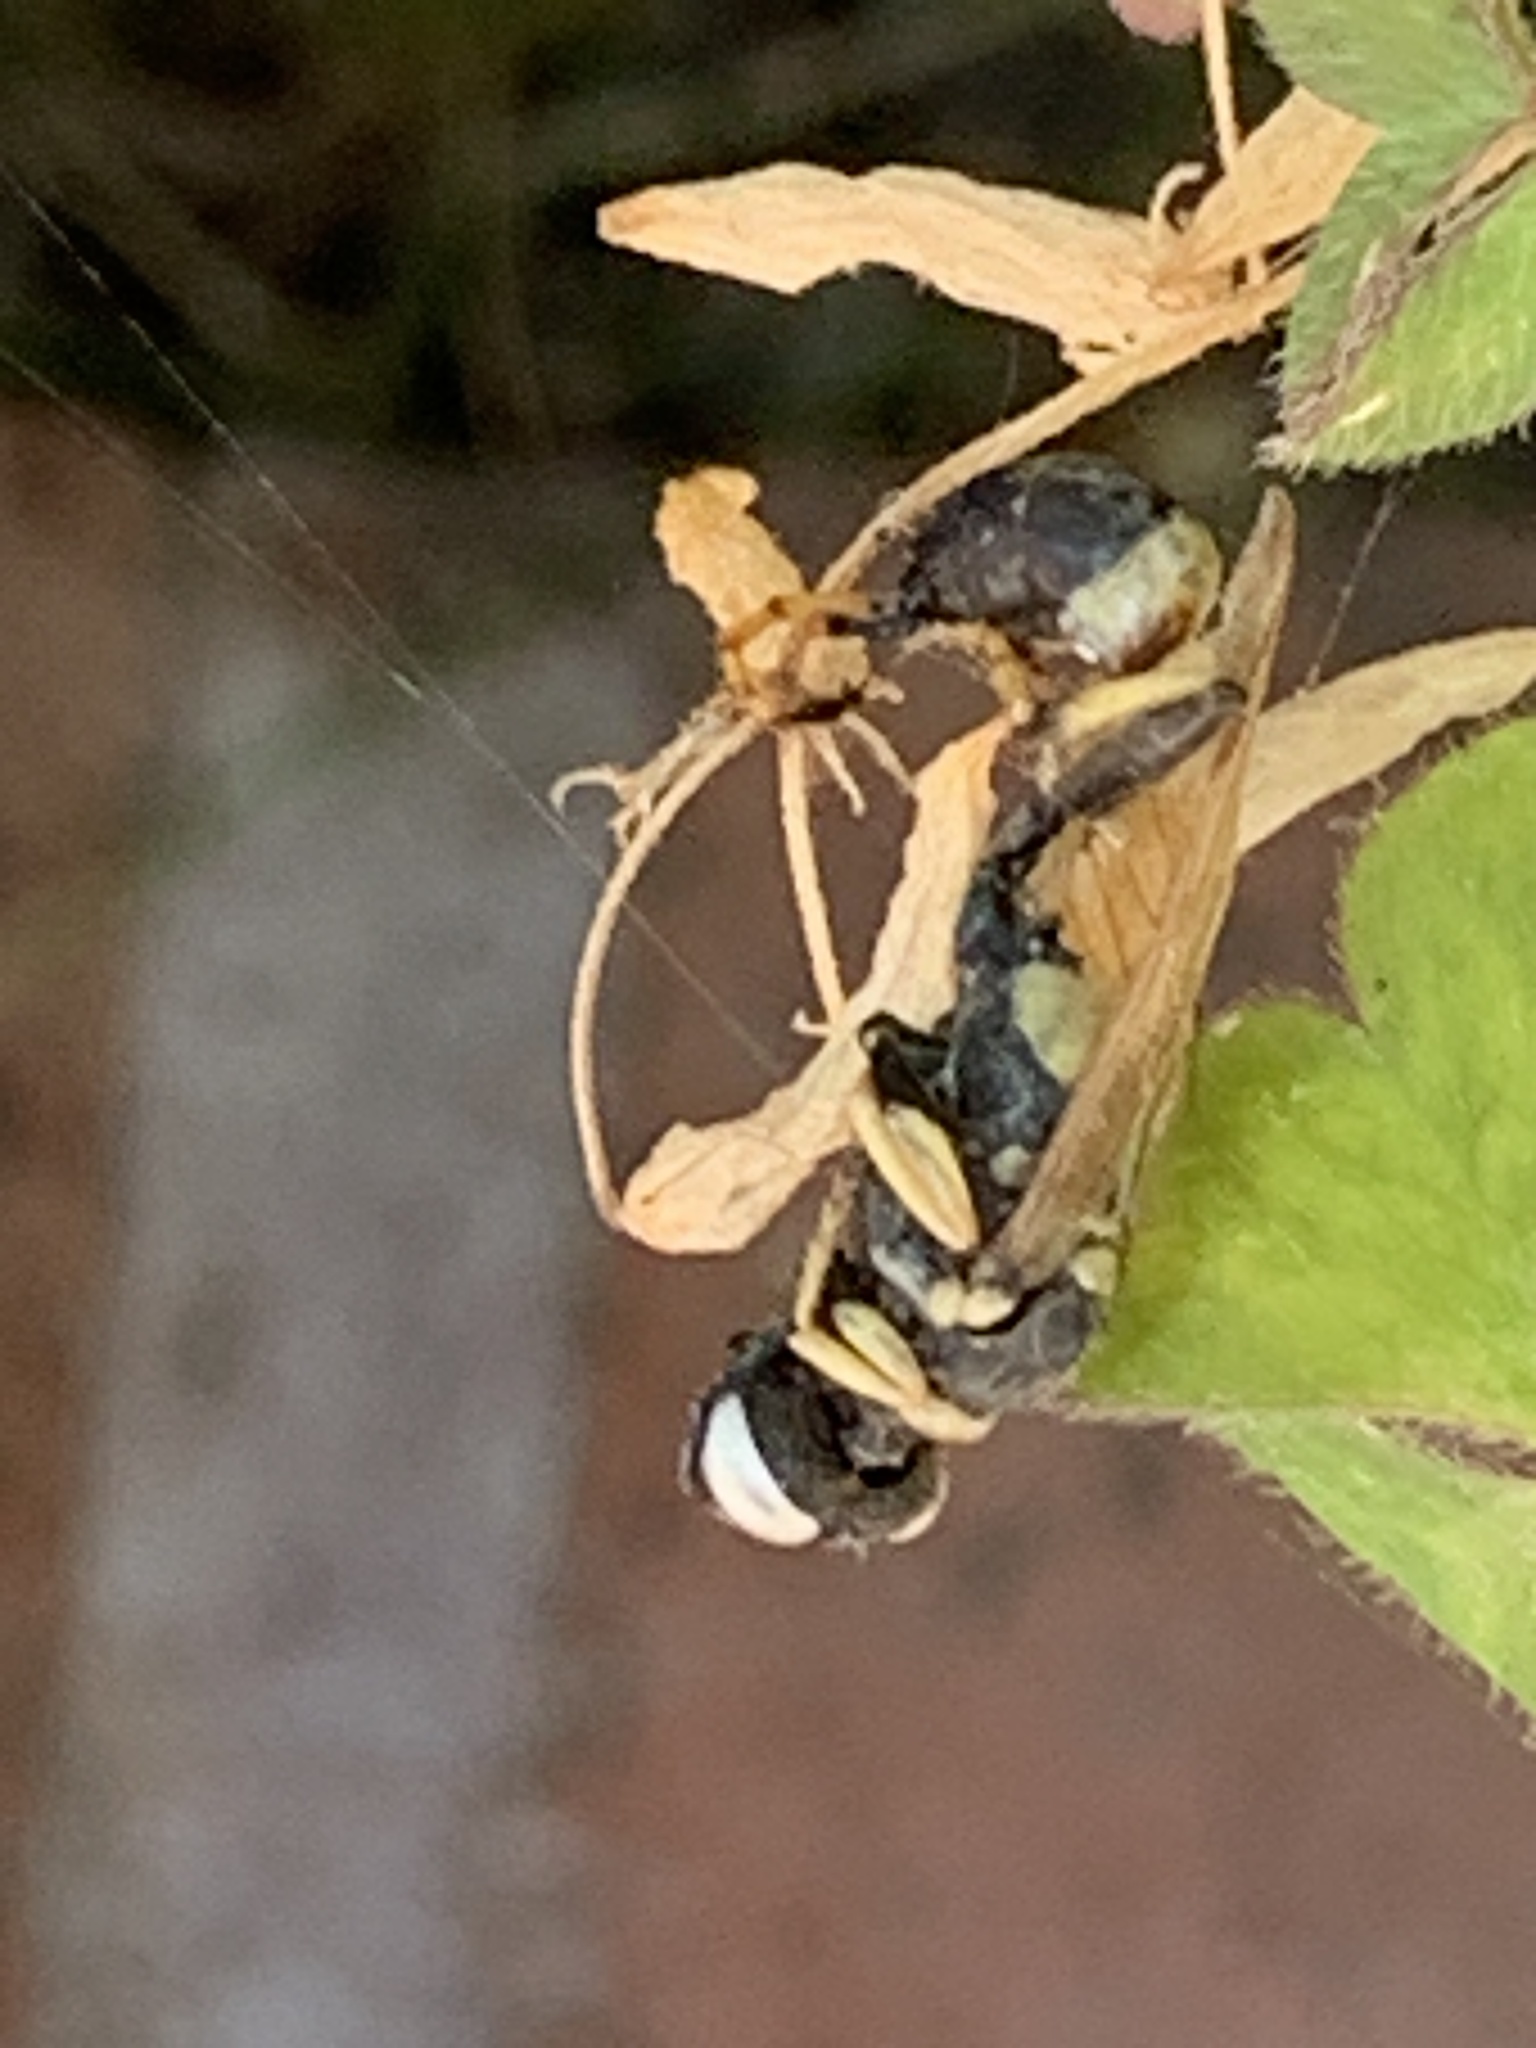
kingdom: Animalia
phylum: Arthropoda
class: Insecta
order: Hymenoptera
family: Eumenidae
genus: Polistes
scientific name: Polistes dominula
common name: Paper wasp
